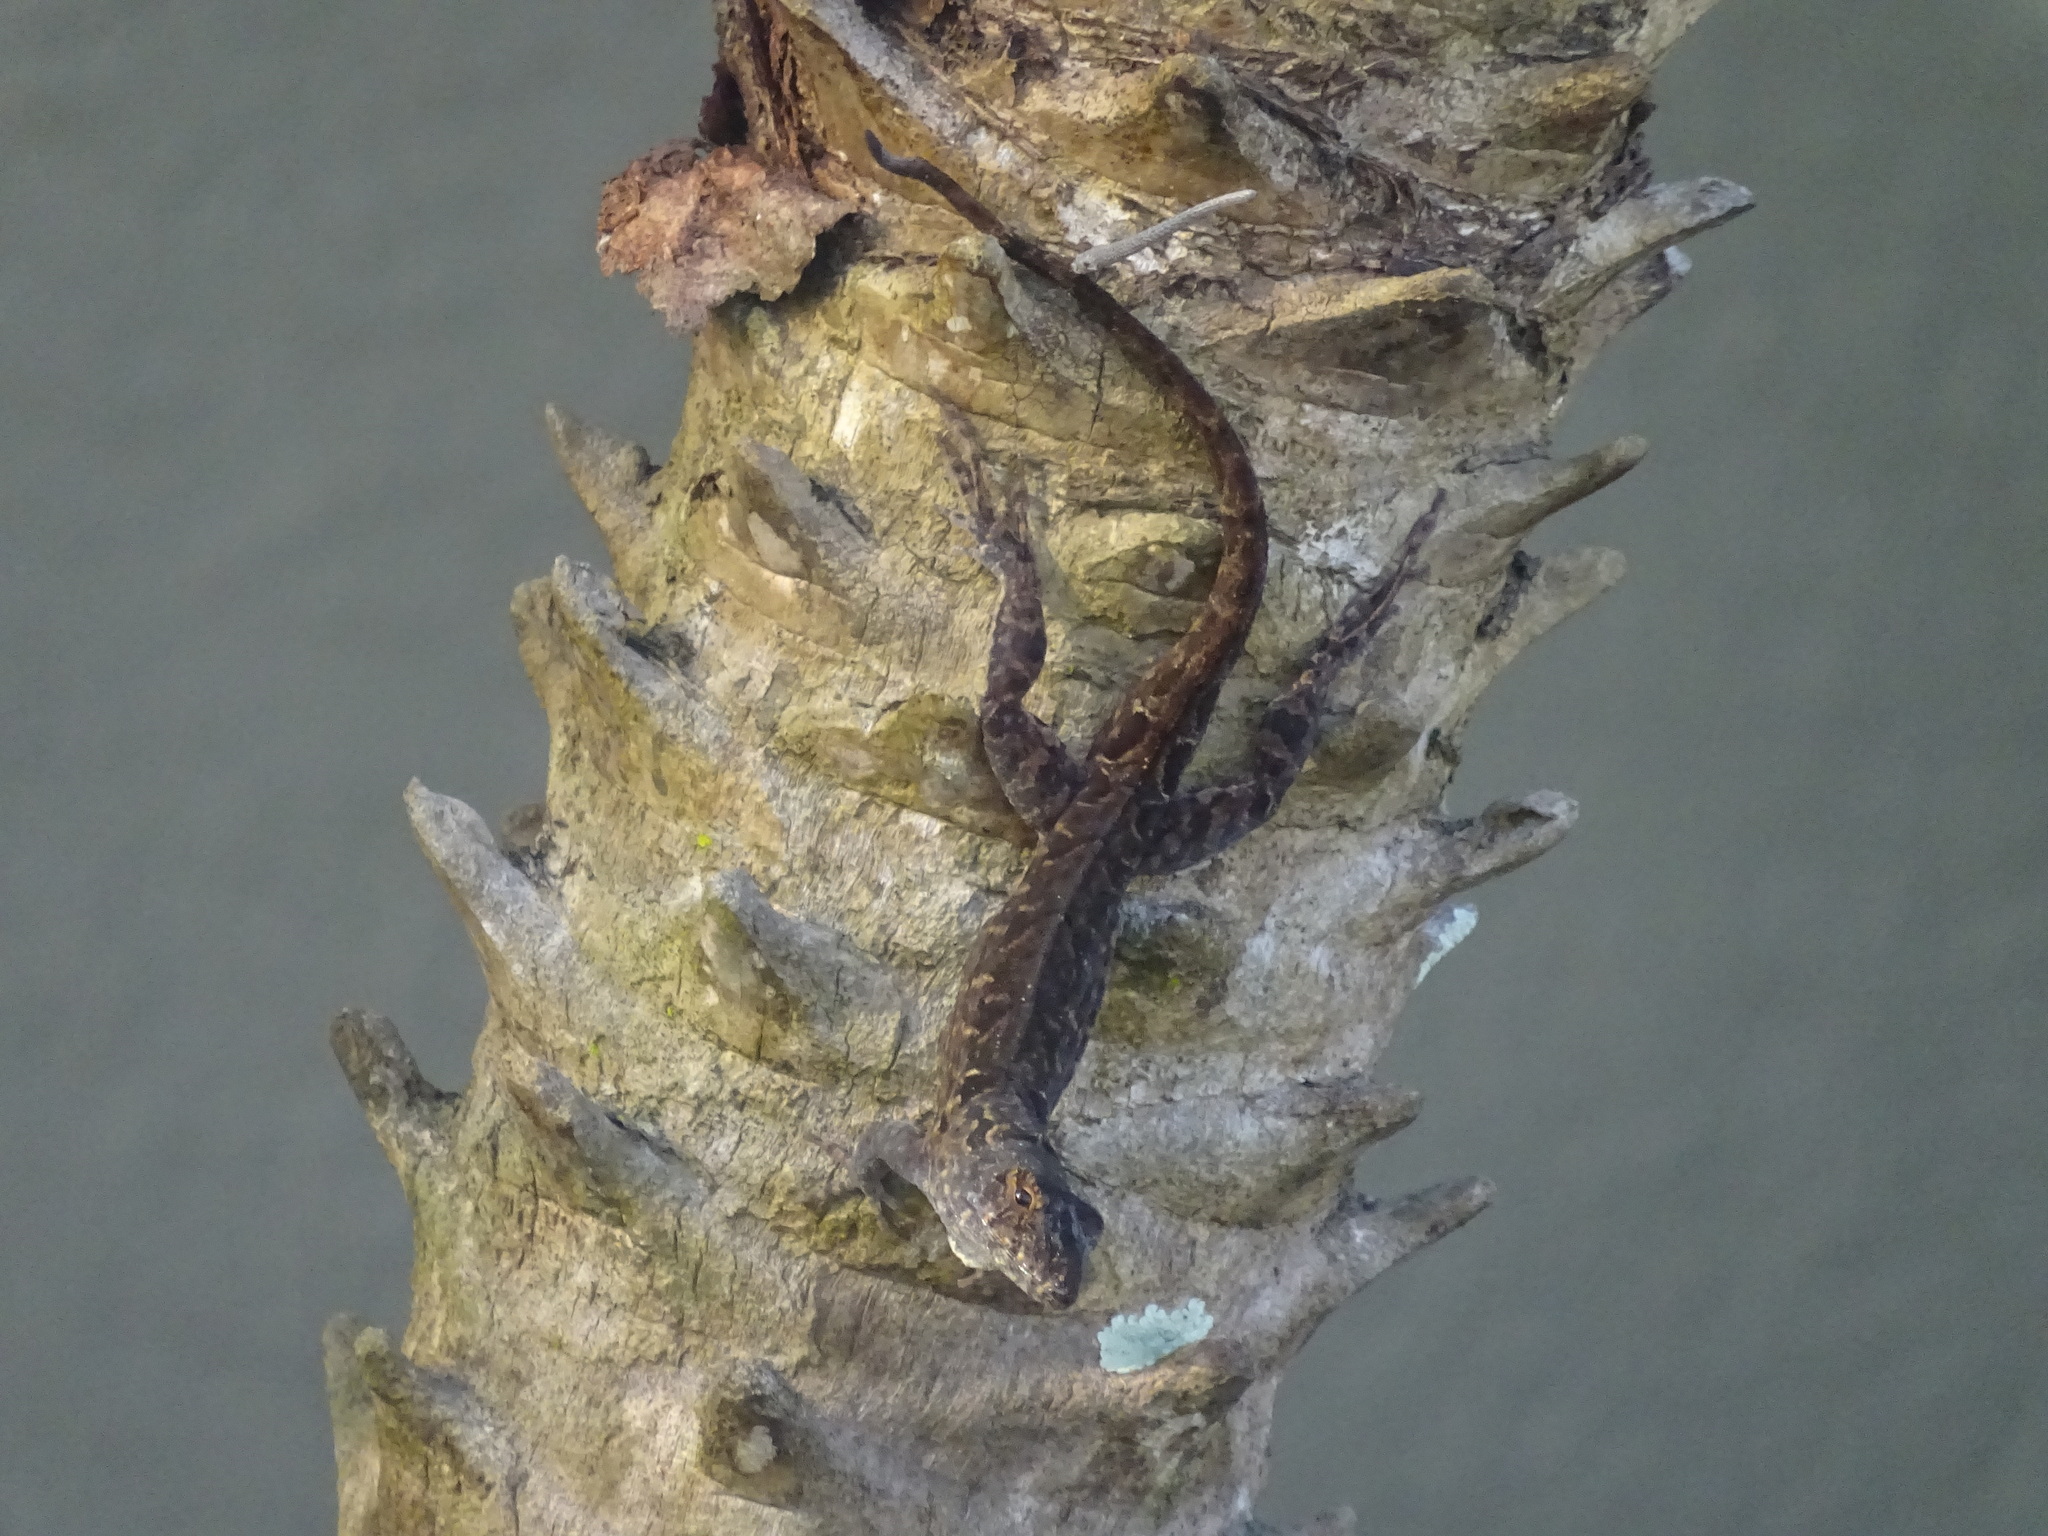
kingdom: Animalia
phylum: Chordata
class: Squamata
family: Dactyloidae
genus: Anolis
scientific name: Anolis sagrei
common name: Brown anole
